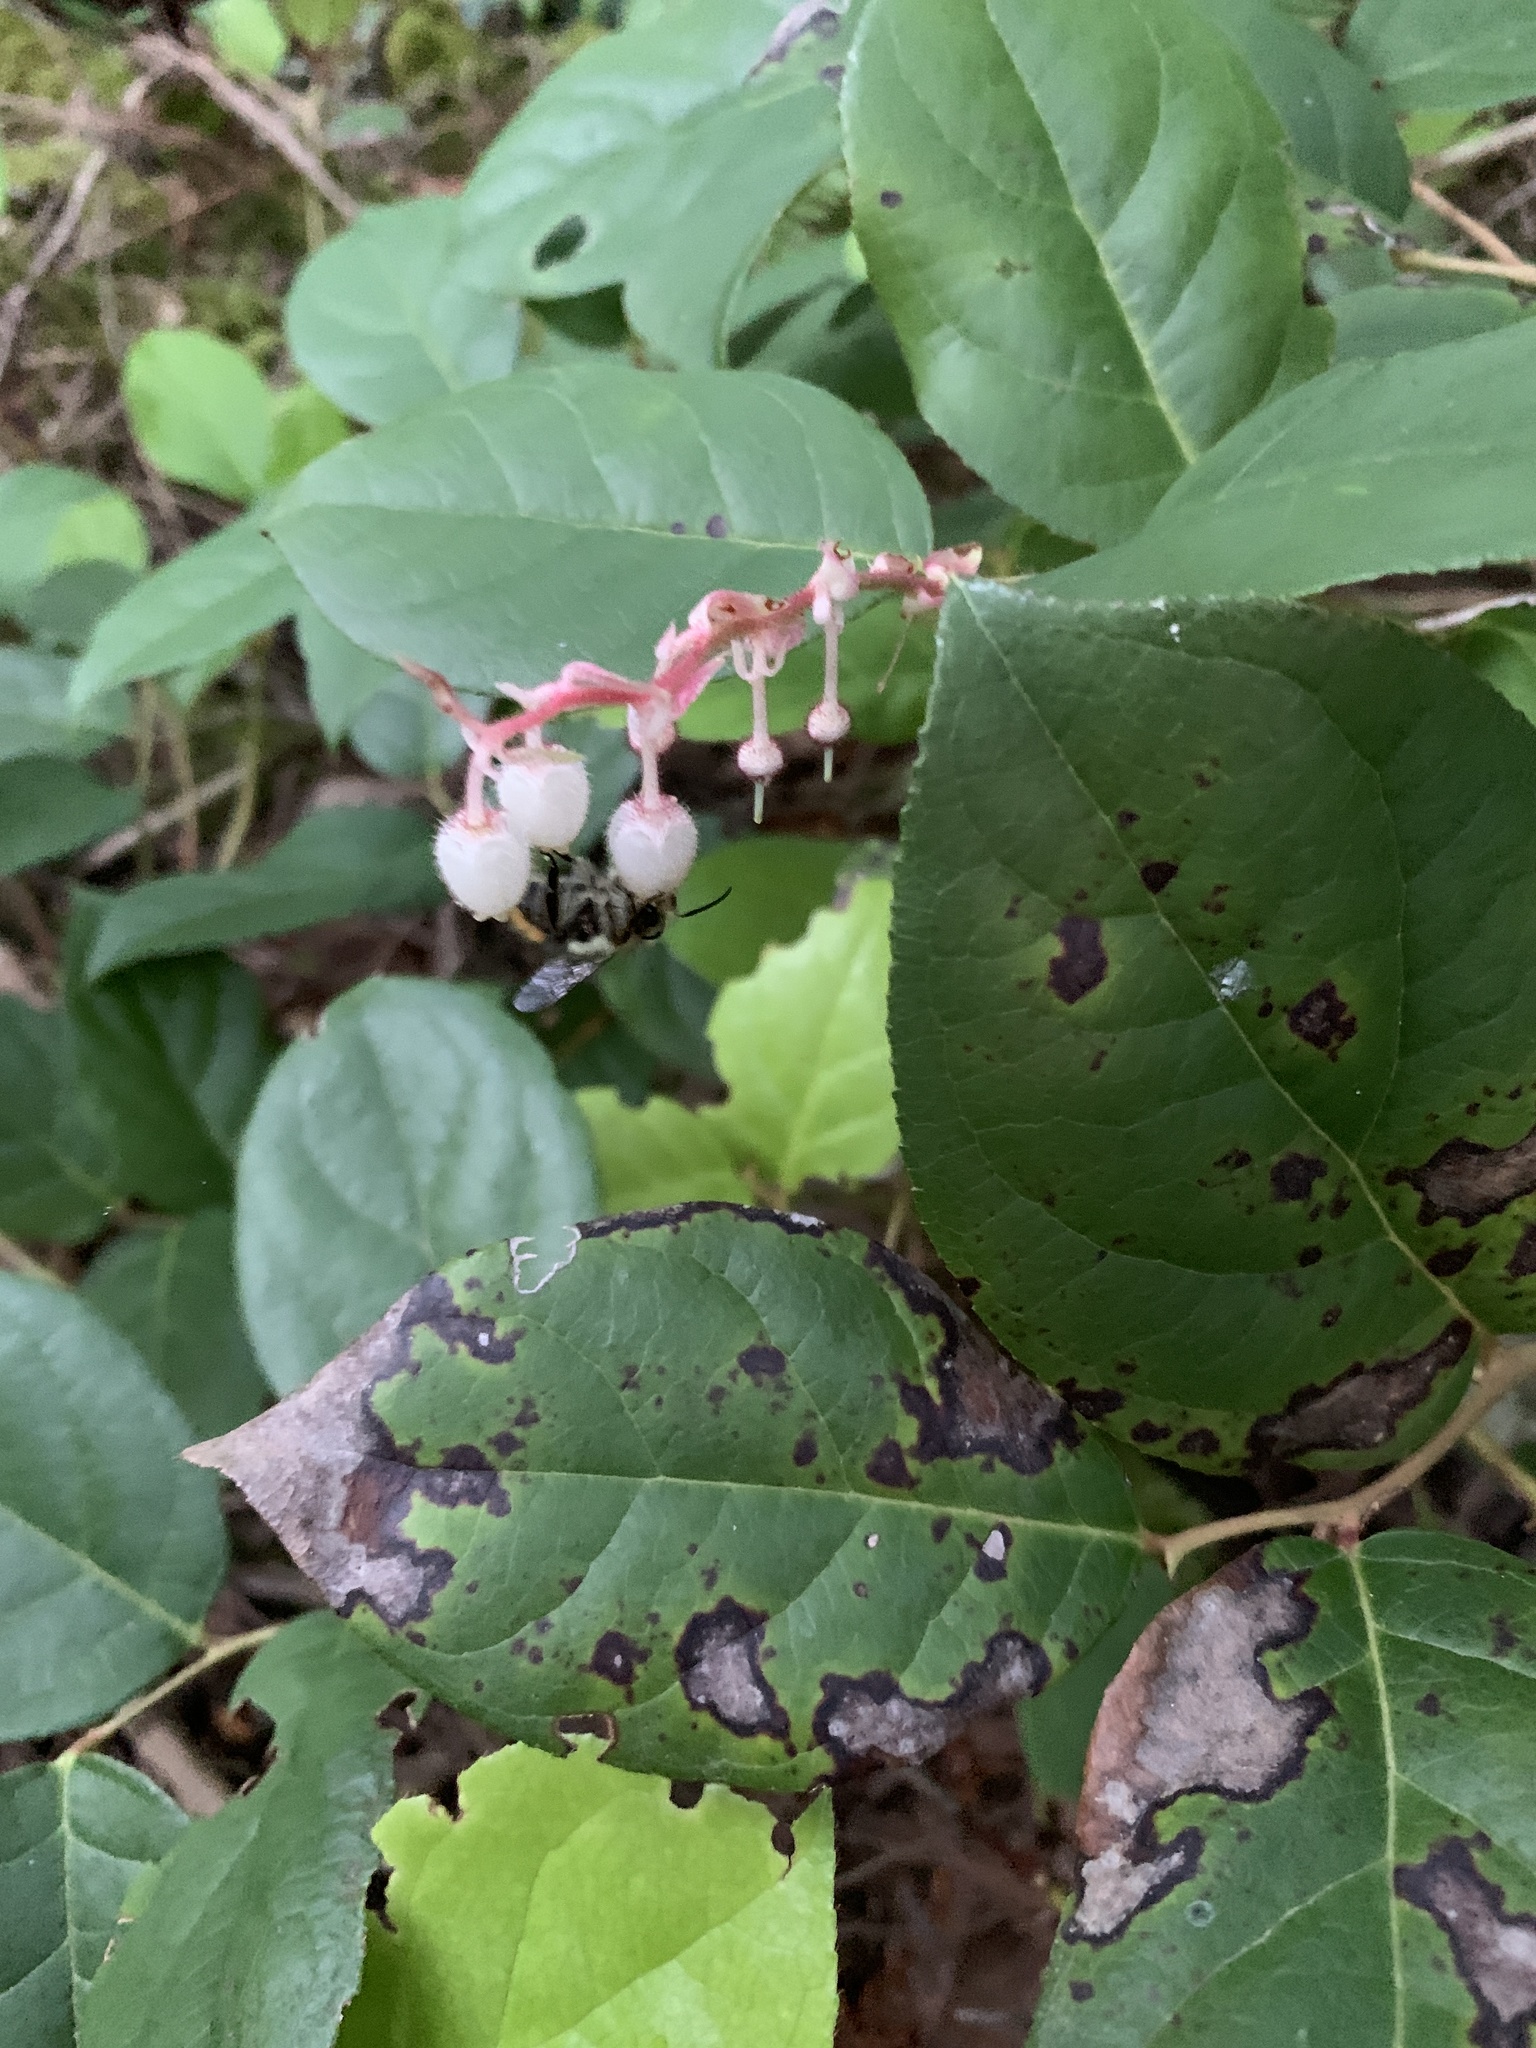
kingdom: Plantae
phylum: Tracheophyta
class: Magnoliopsida
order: Ericales
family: Ericaceae
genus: Gaultheria
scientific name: Gaultheria shallon
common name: Shallon
